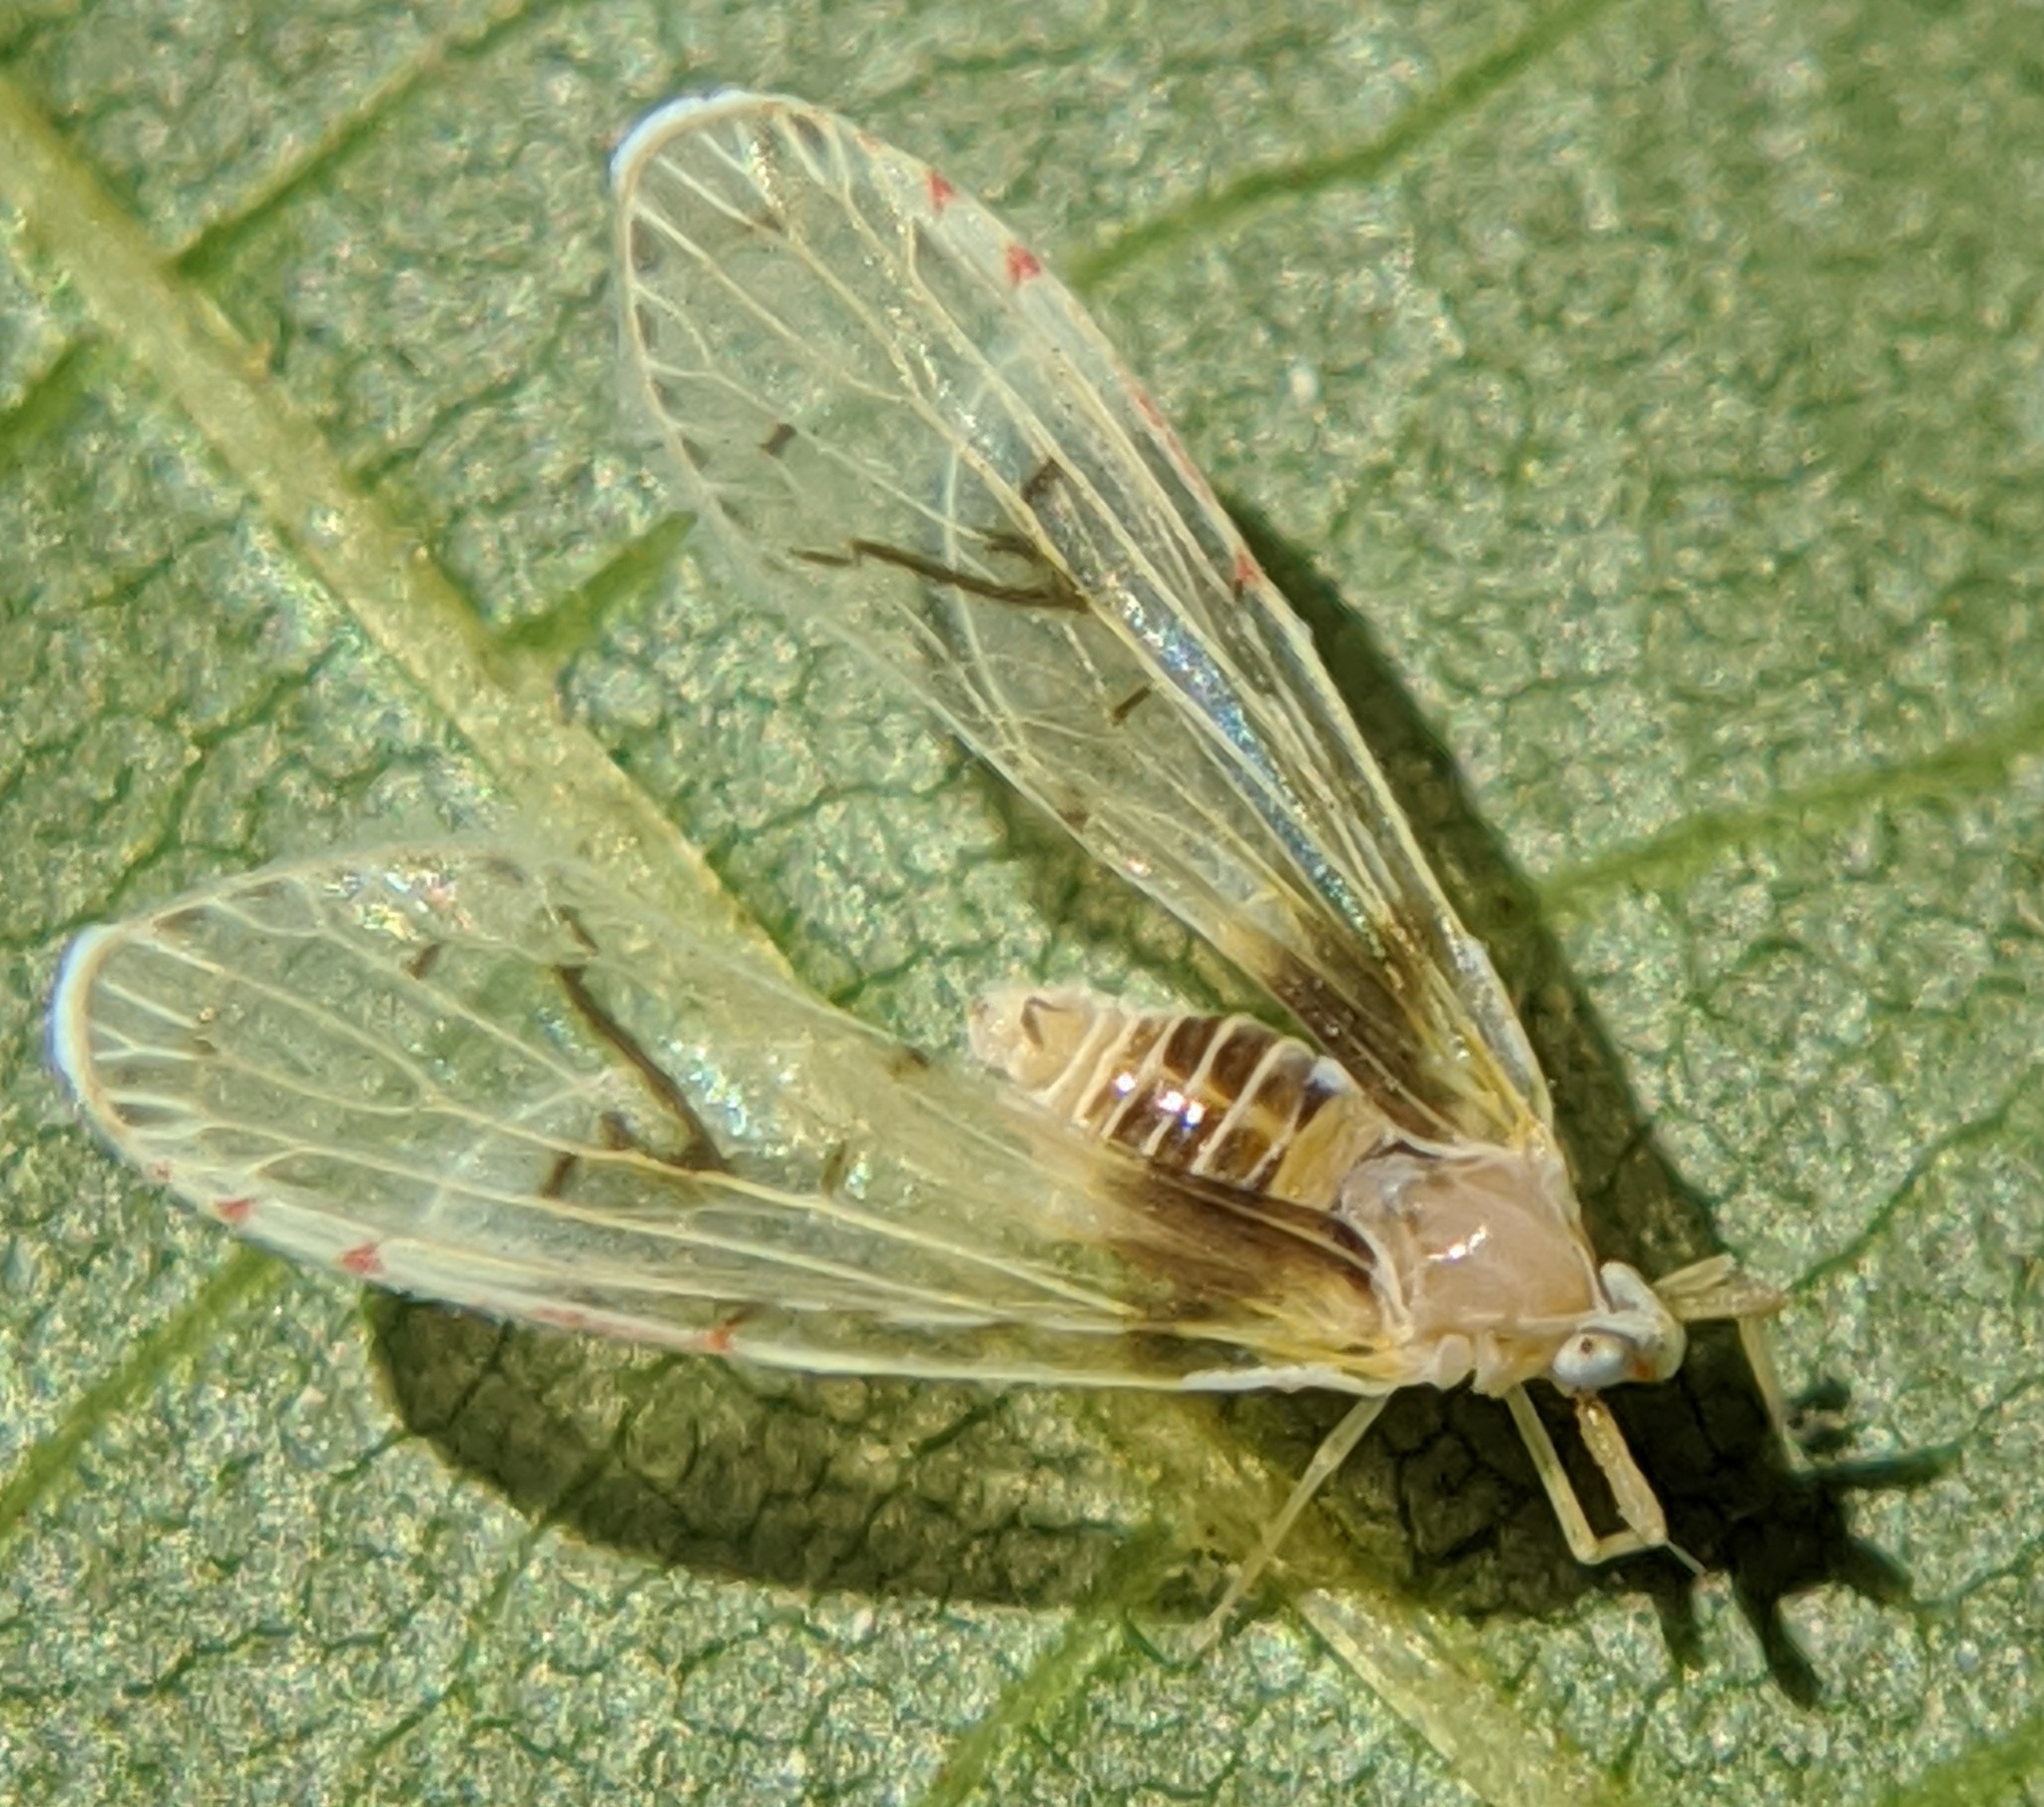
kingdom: Animalia
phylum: Arthropoda
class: Insecta
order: Hemiptera
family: Derbidae
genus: Anotia
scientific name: Anotia burnetii
